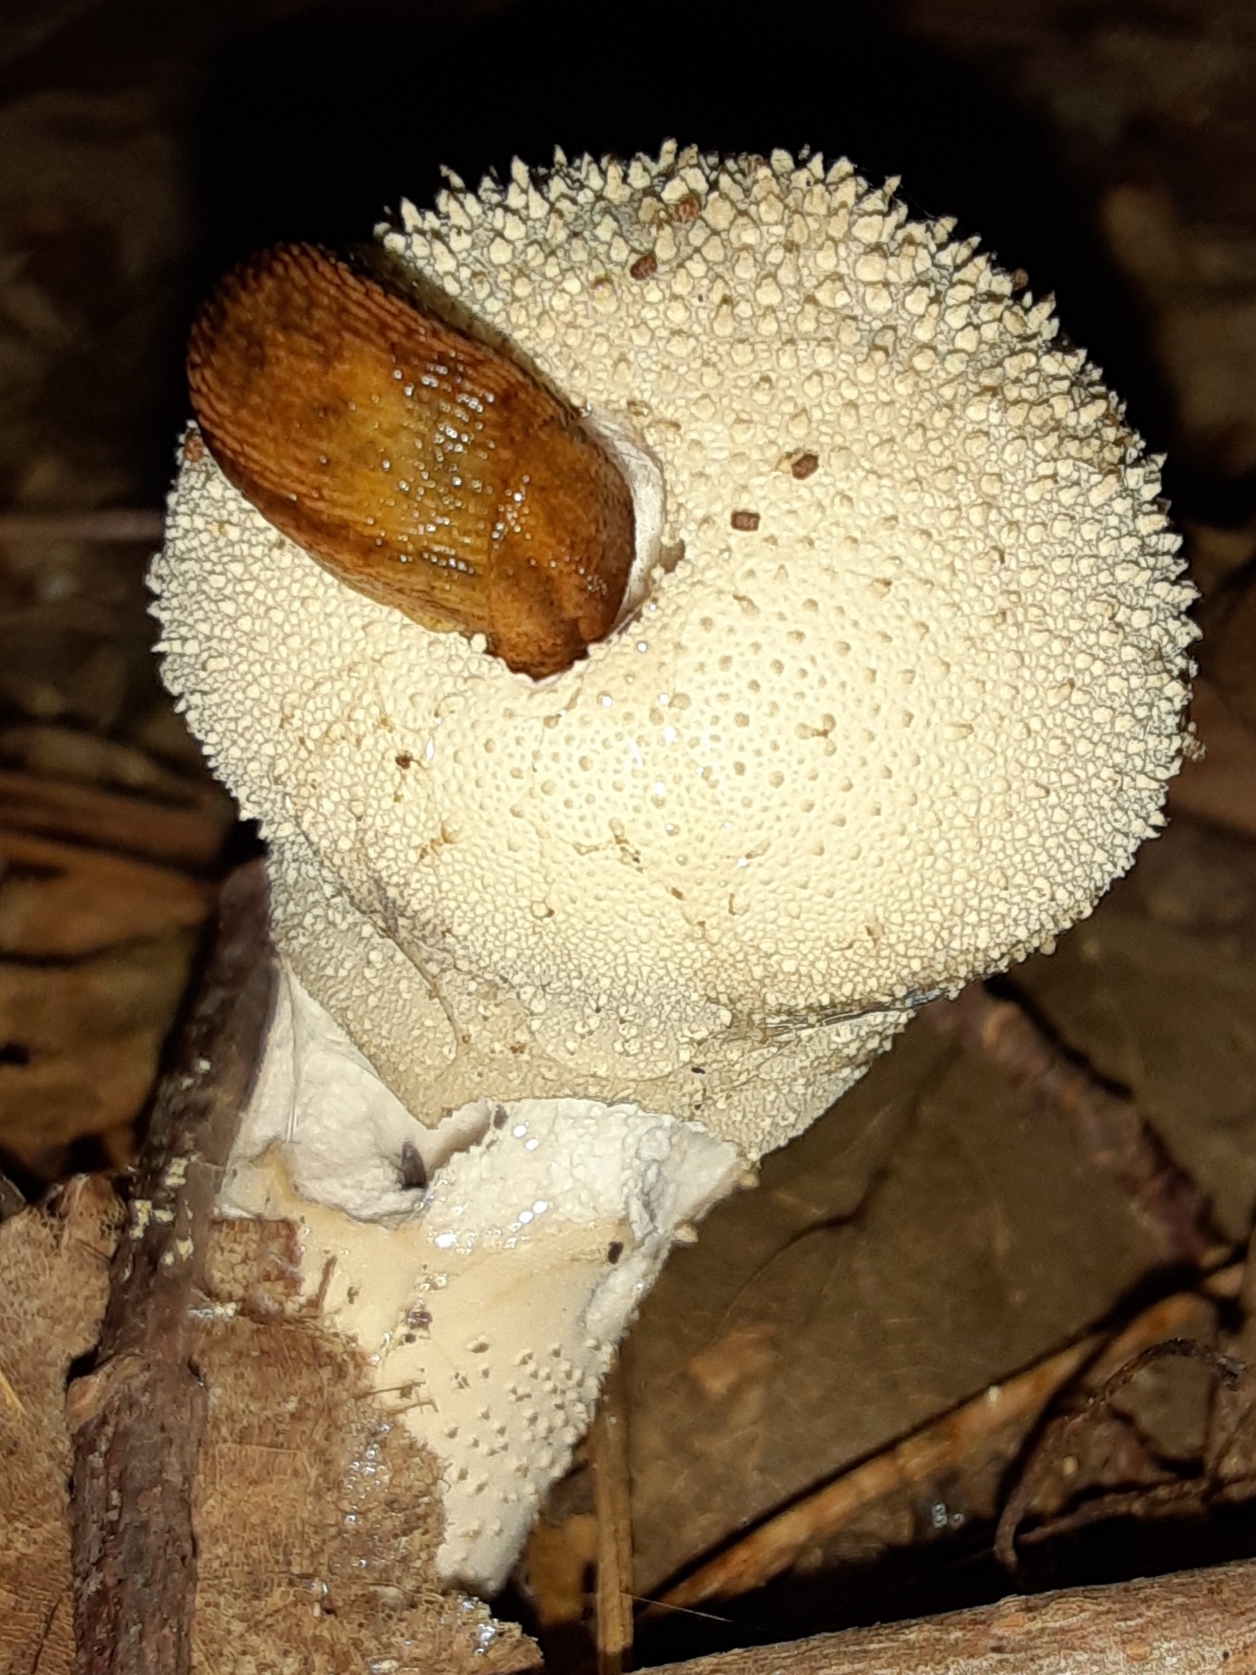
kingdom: Fungi
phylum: Basidiomycota
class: Agaricomycetes
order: Agaricales
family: Lycoperdaceae
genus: Lycoperdon
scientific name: Lycoperdon perlatum
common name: Common puffball
